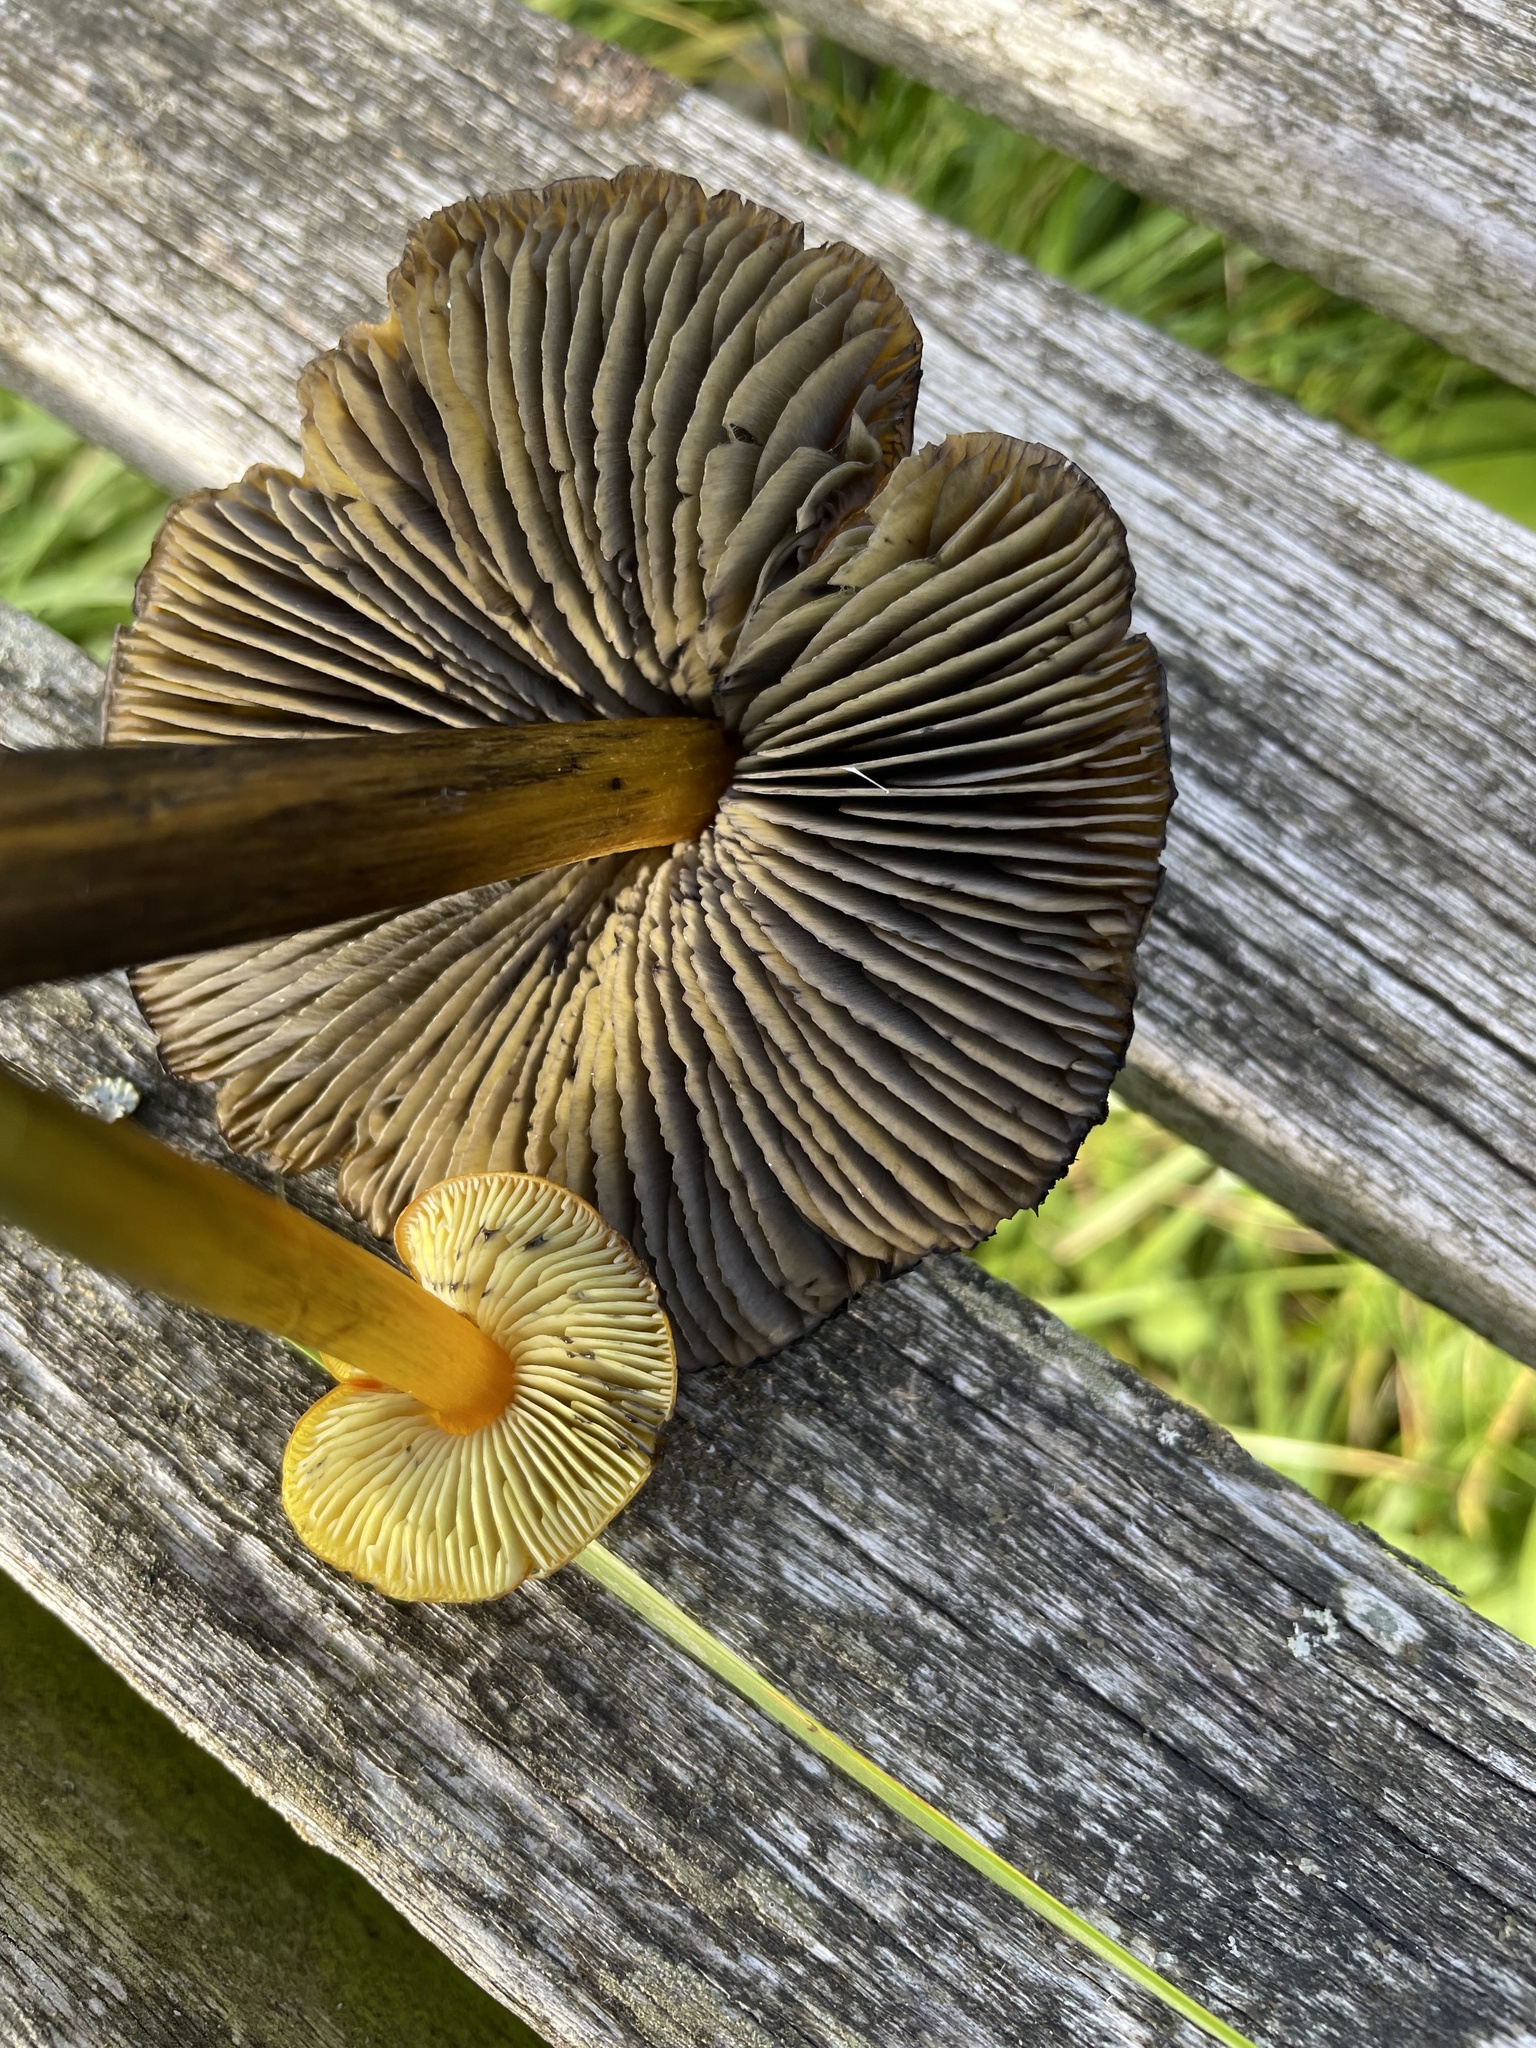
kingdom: Fungi
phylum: Basidiomycota
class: Agaricomycetes
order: Agaricales
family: Hygrophoraceae
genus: Hygrocybe
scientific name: Hygrocybe conica
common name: Blackening wax-cap
